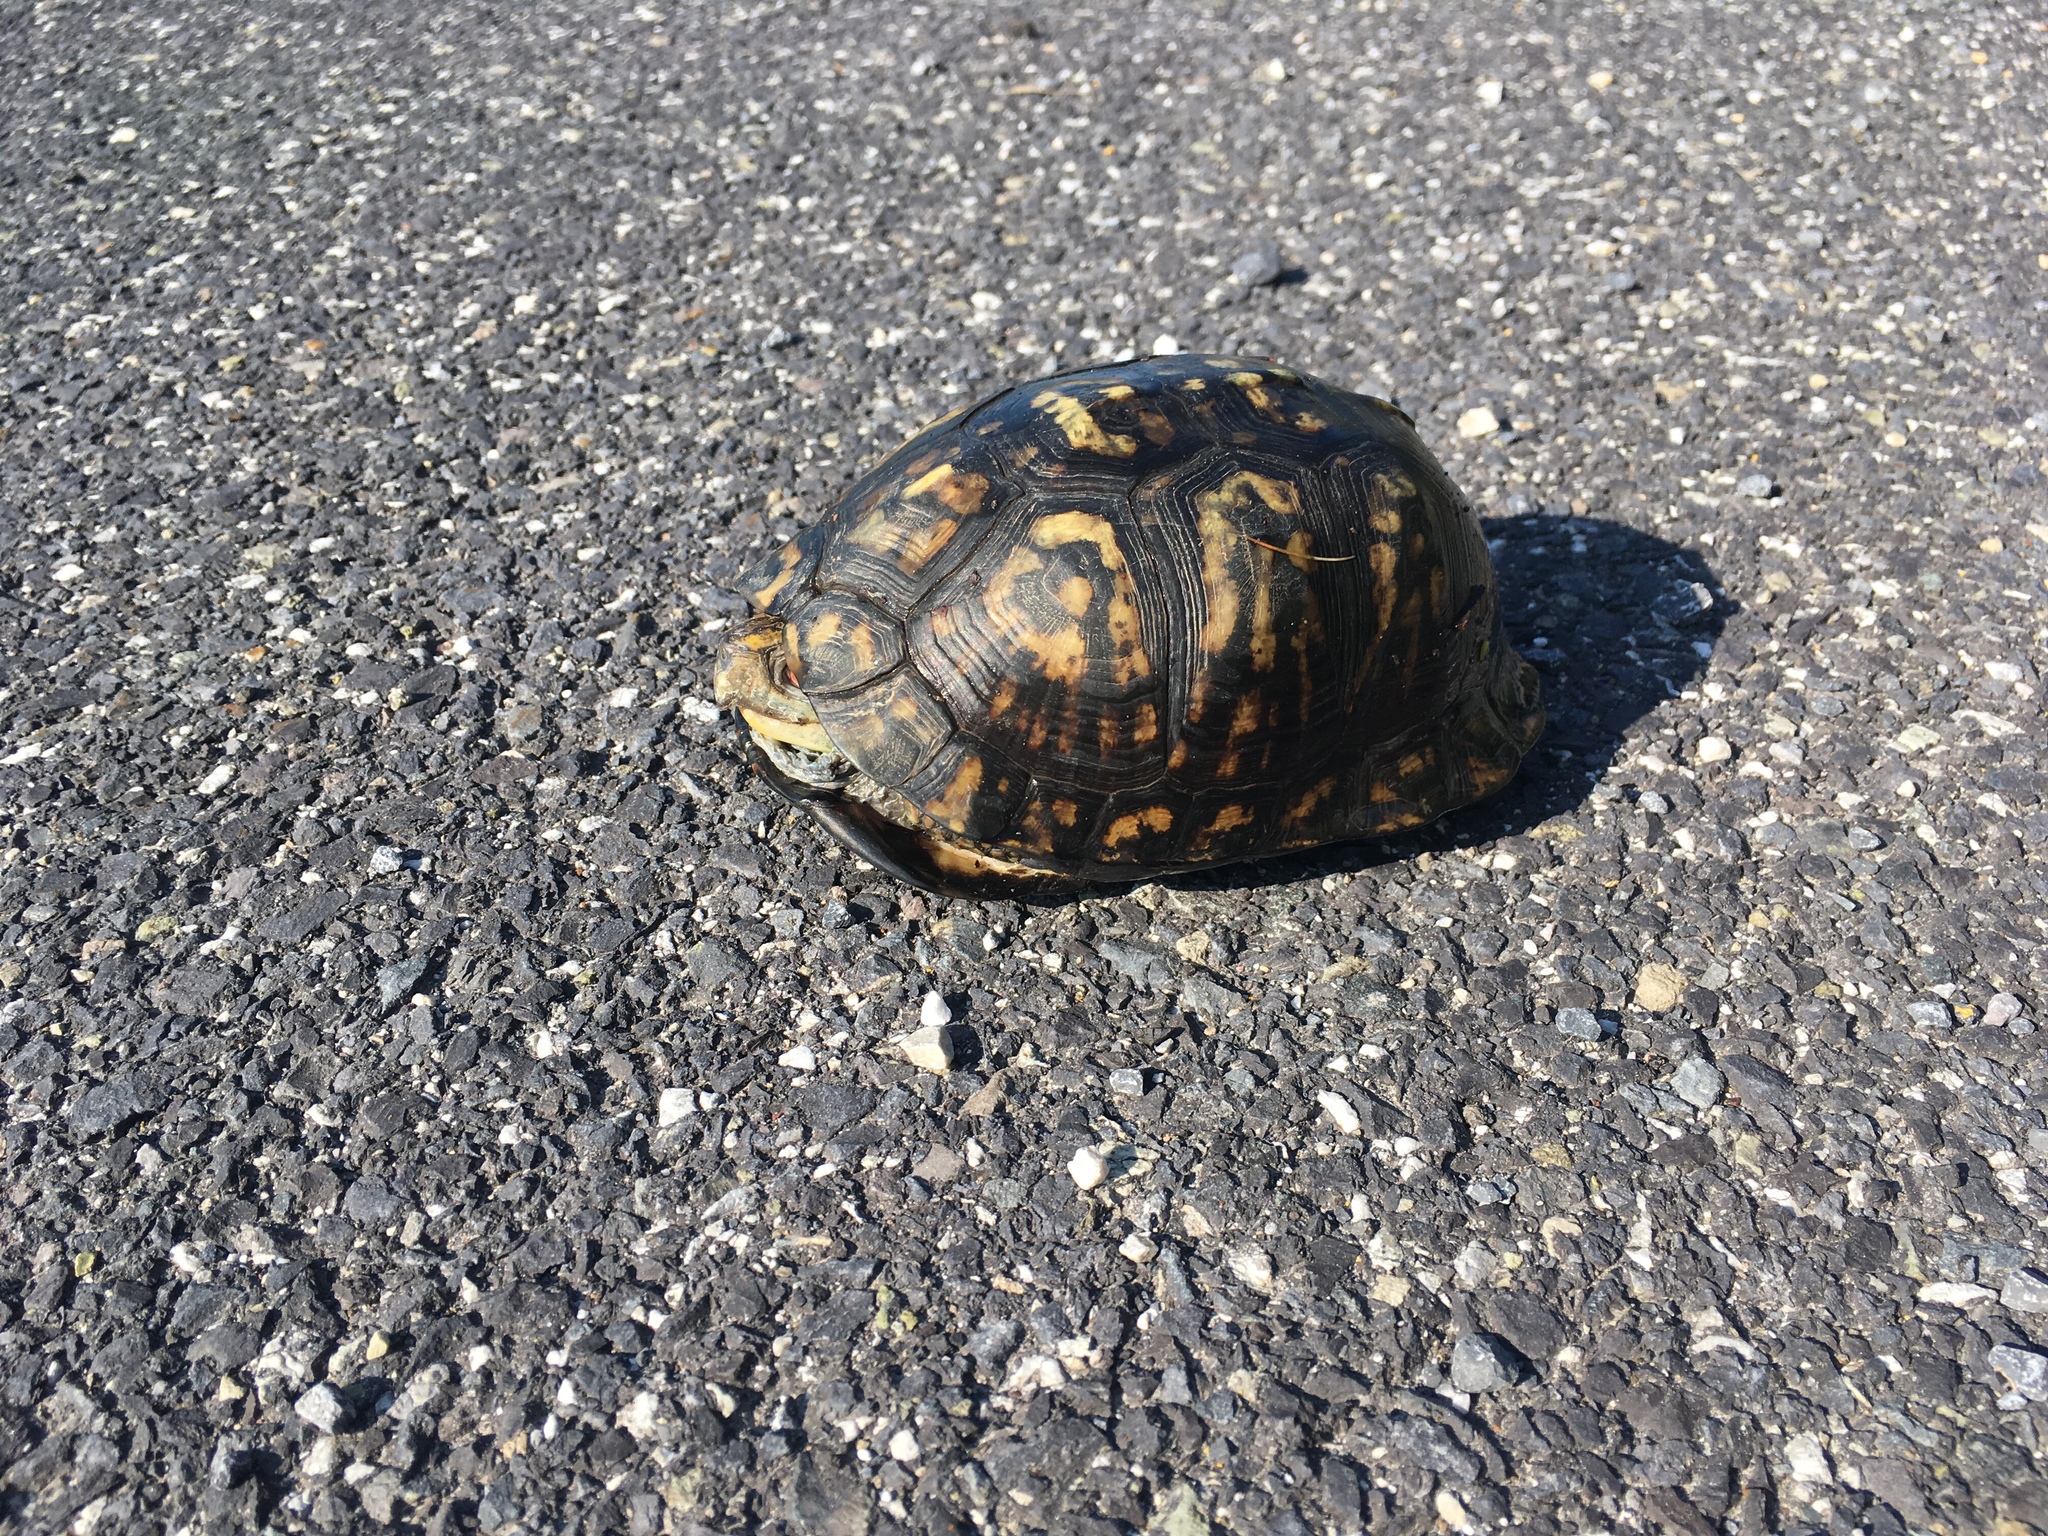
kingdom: Animalia
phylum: Chordata
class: Testudines
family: Emydidae
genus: Terrapene
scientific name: Terrapene carolina
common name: Common box turtle
